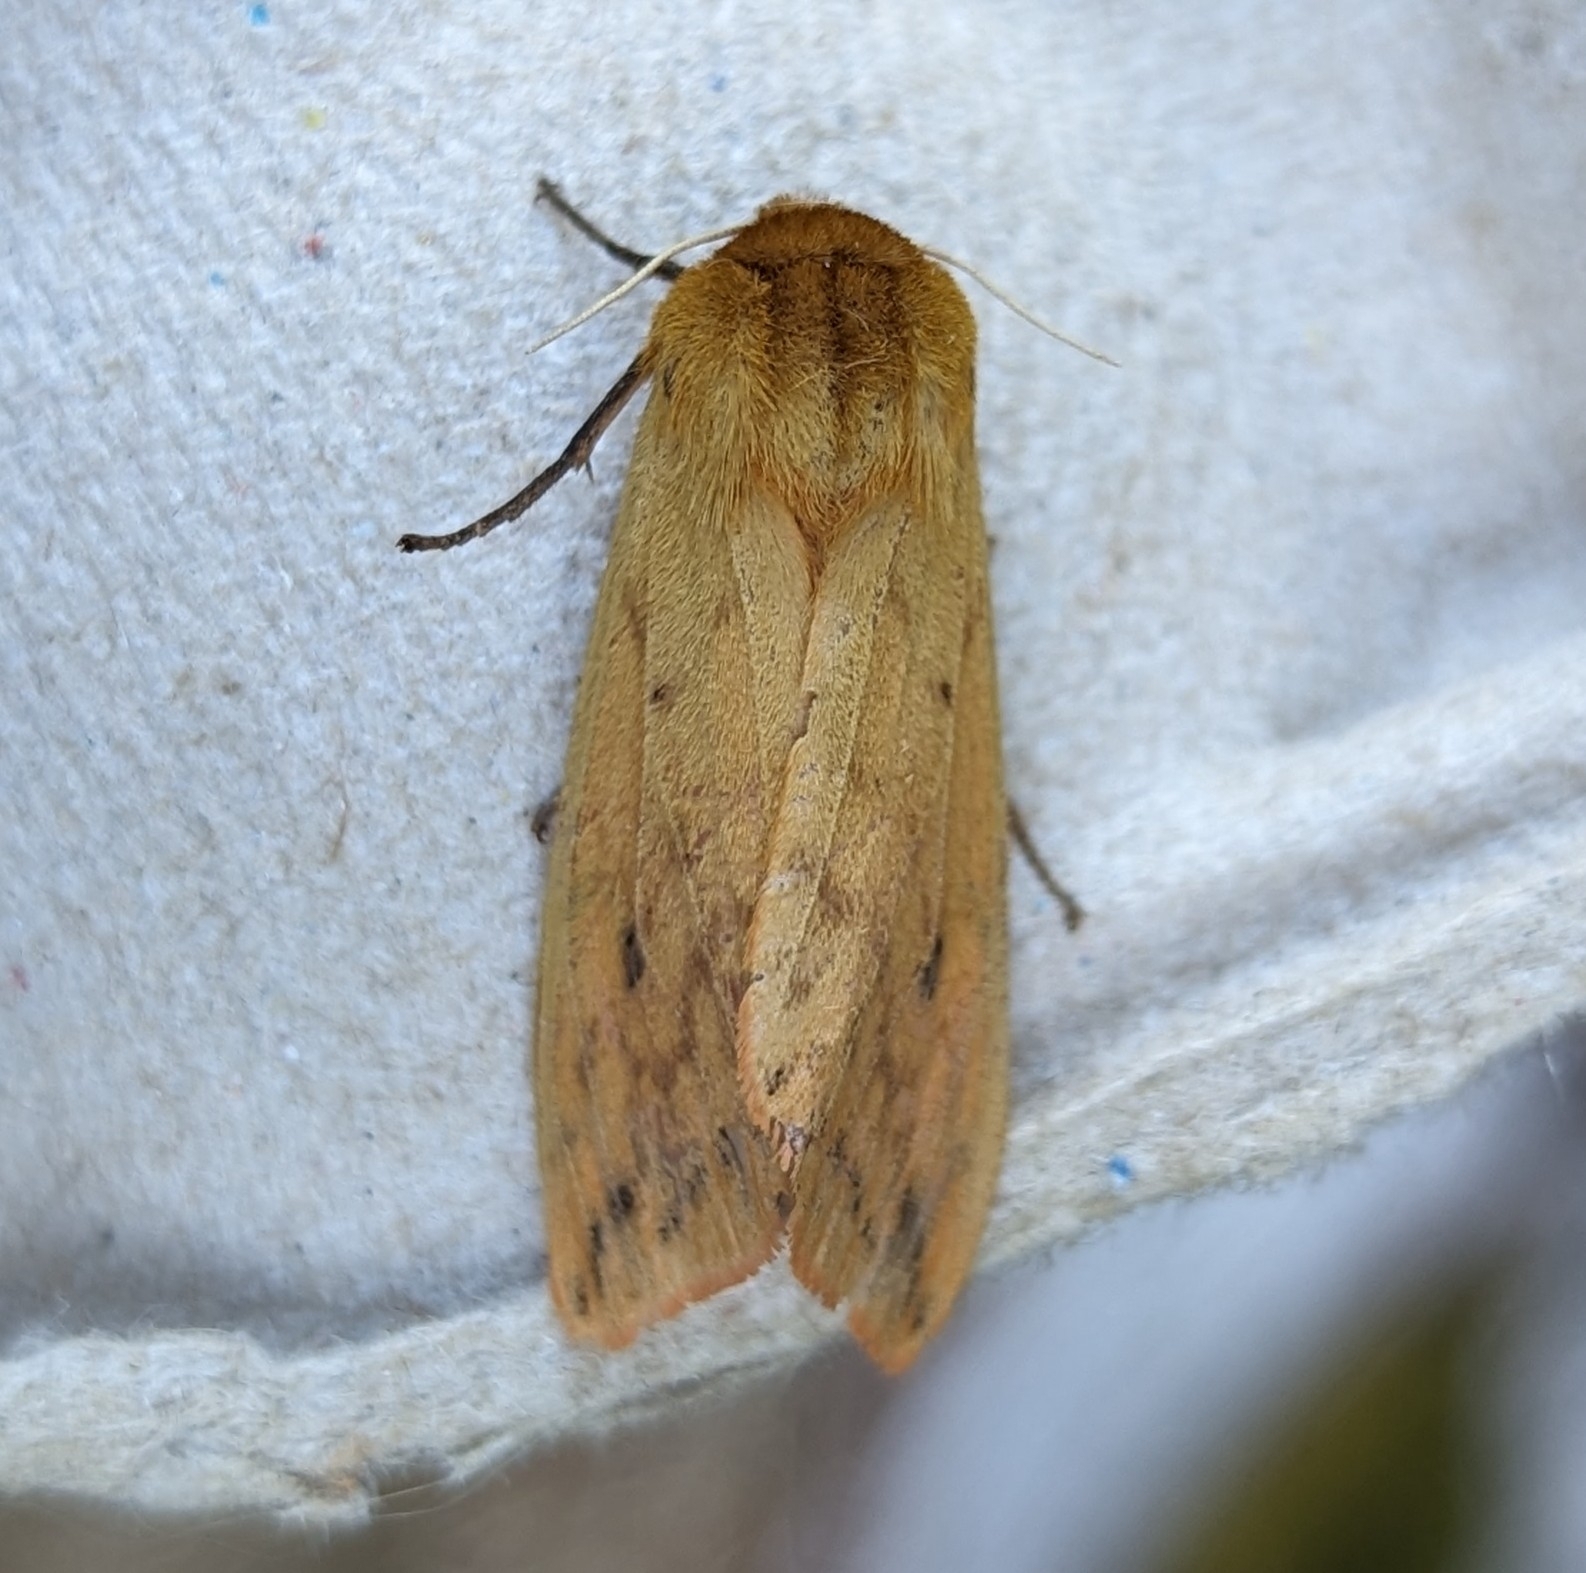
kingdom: Animalia
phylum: Arthropoda
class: Insecta
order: Lepidoptera
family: Erebidae
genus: Pyrrharctia
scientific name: Pyrrharctia isabella
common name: Isabella tiger moth
